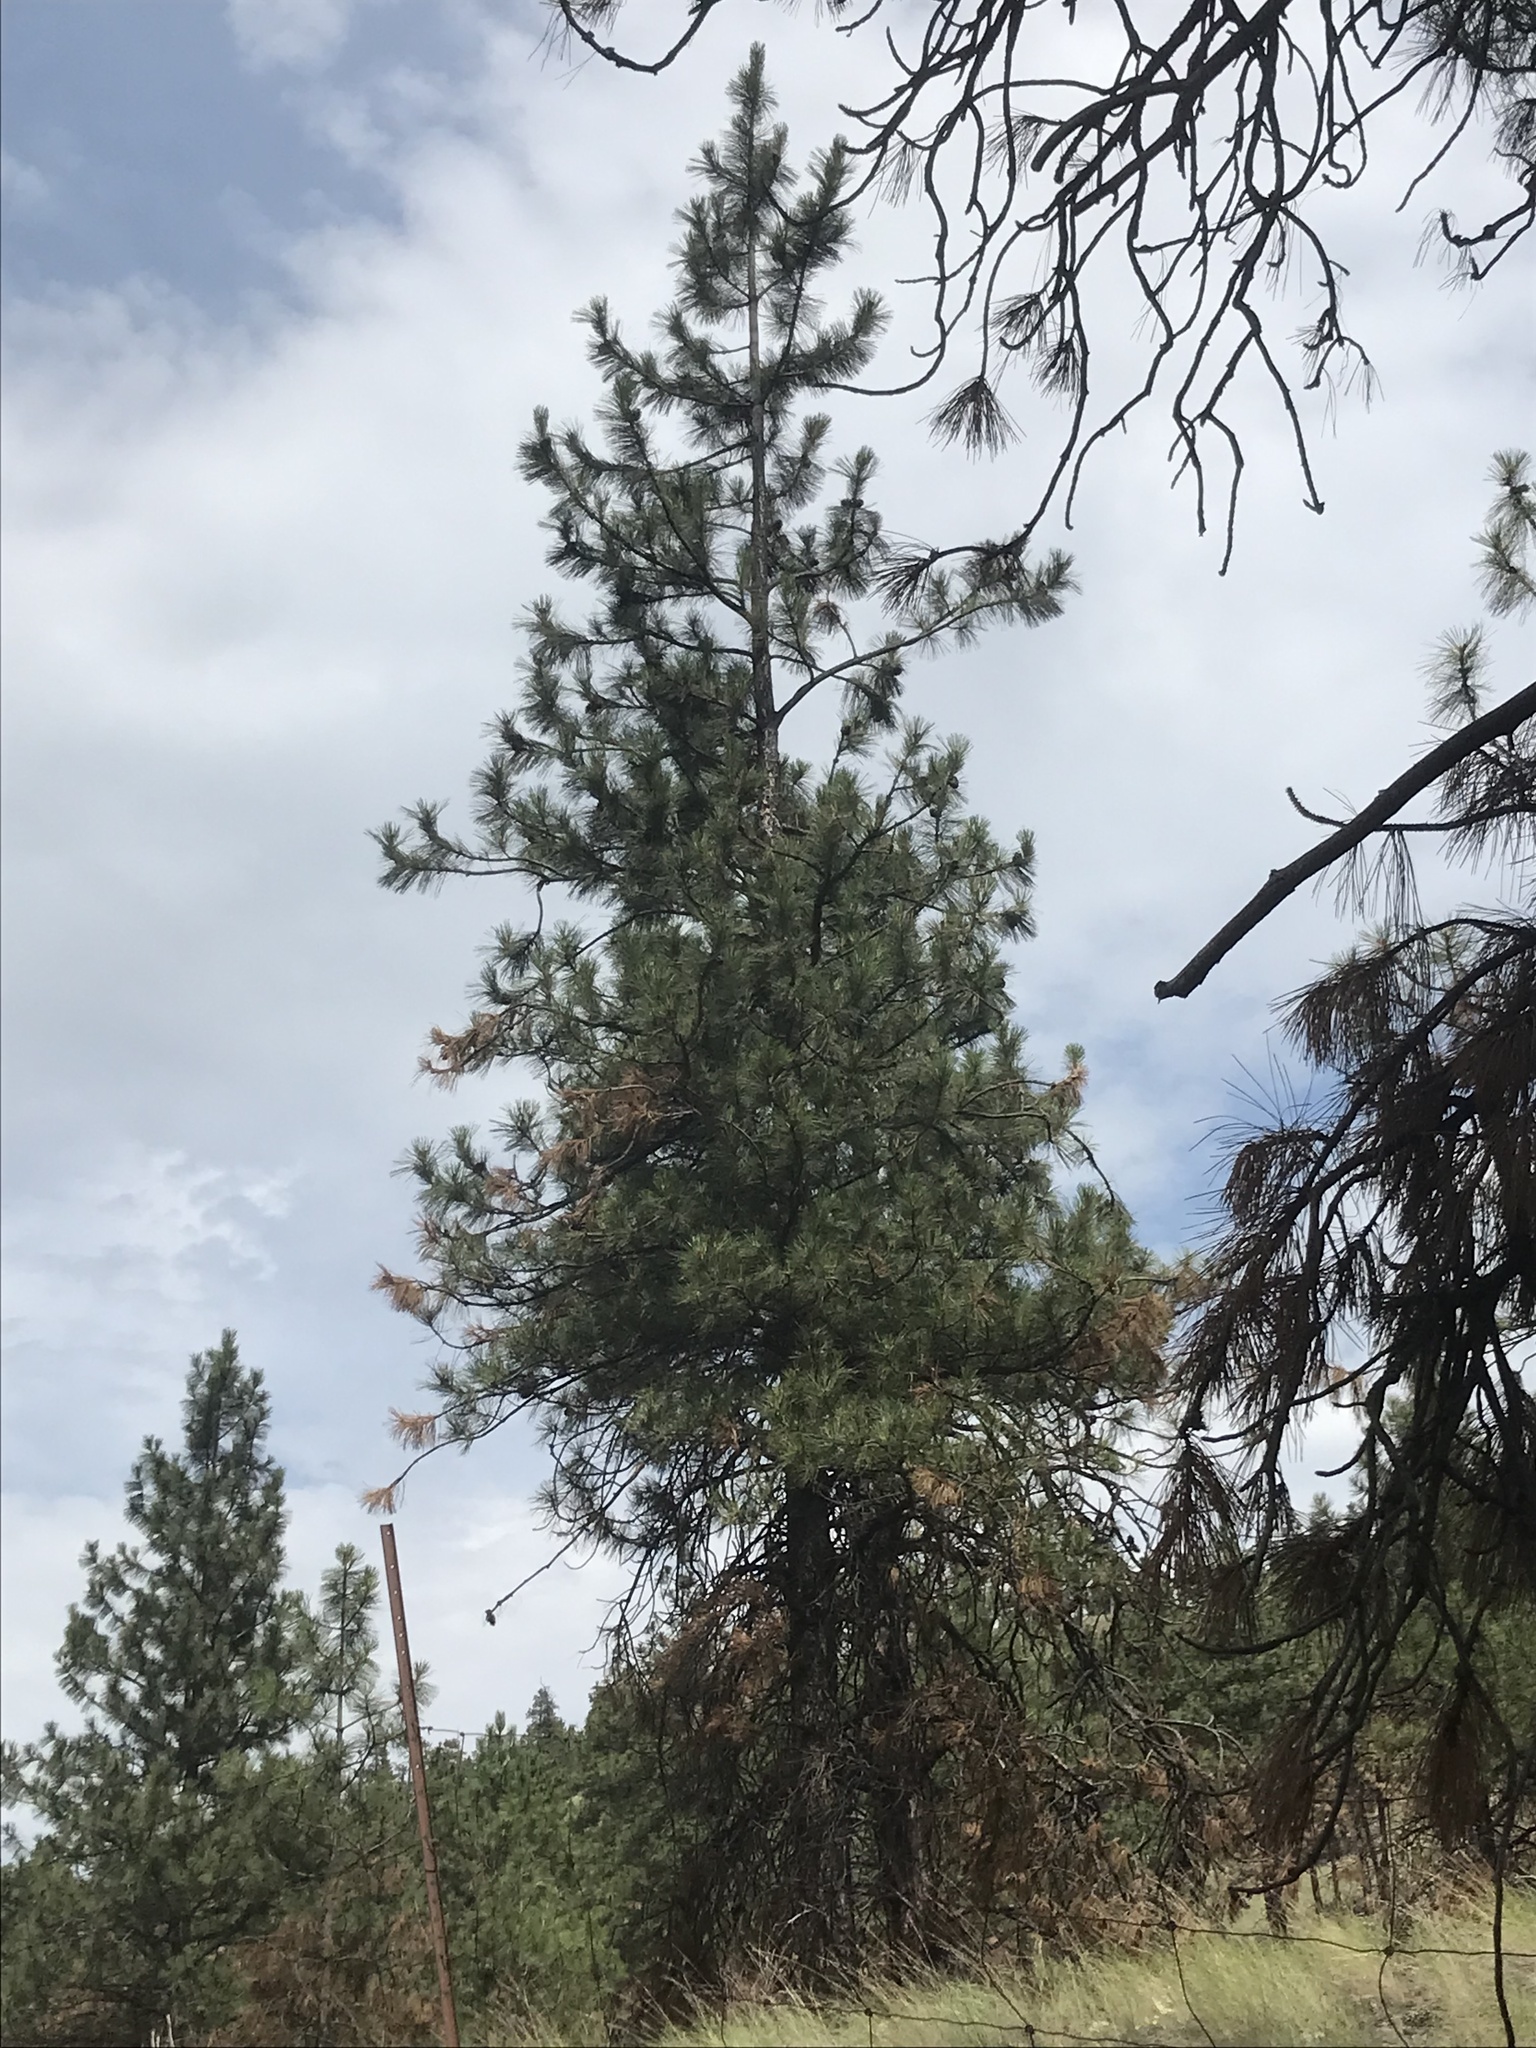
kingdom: Plantae
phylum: Tracheophyta
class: Pinopsida
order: Pinales
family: Pinaceae
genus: Pinus
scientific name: Pinus ponderosa
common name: Western yellow-pine
